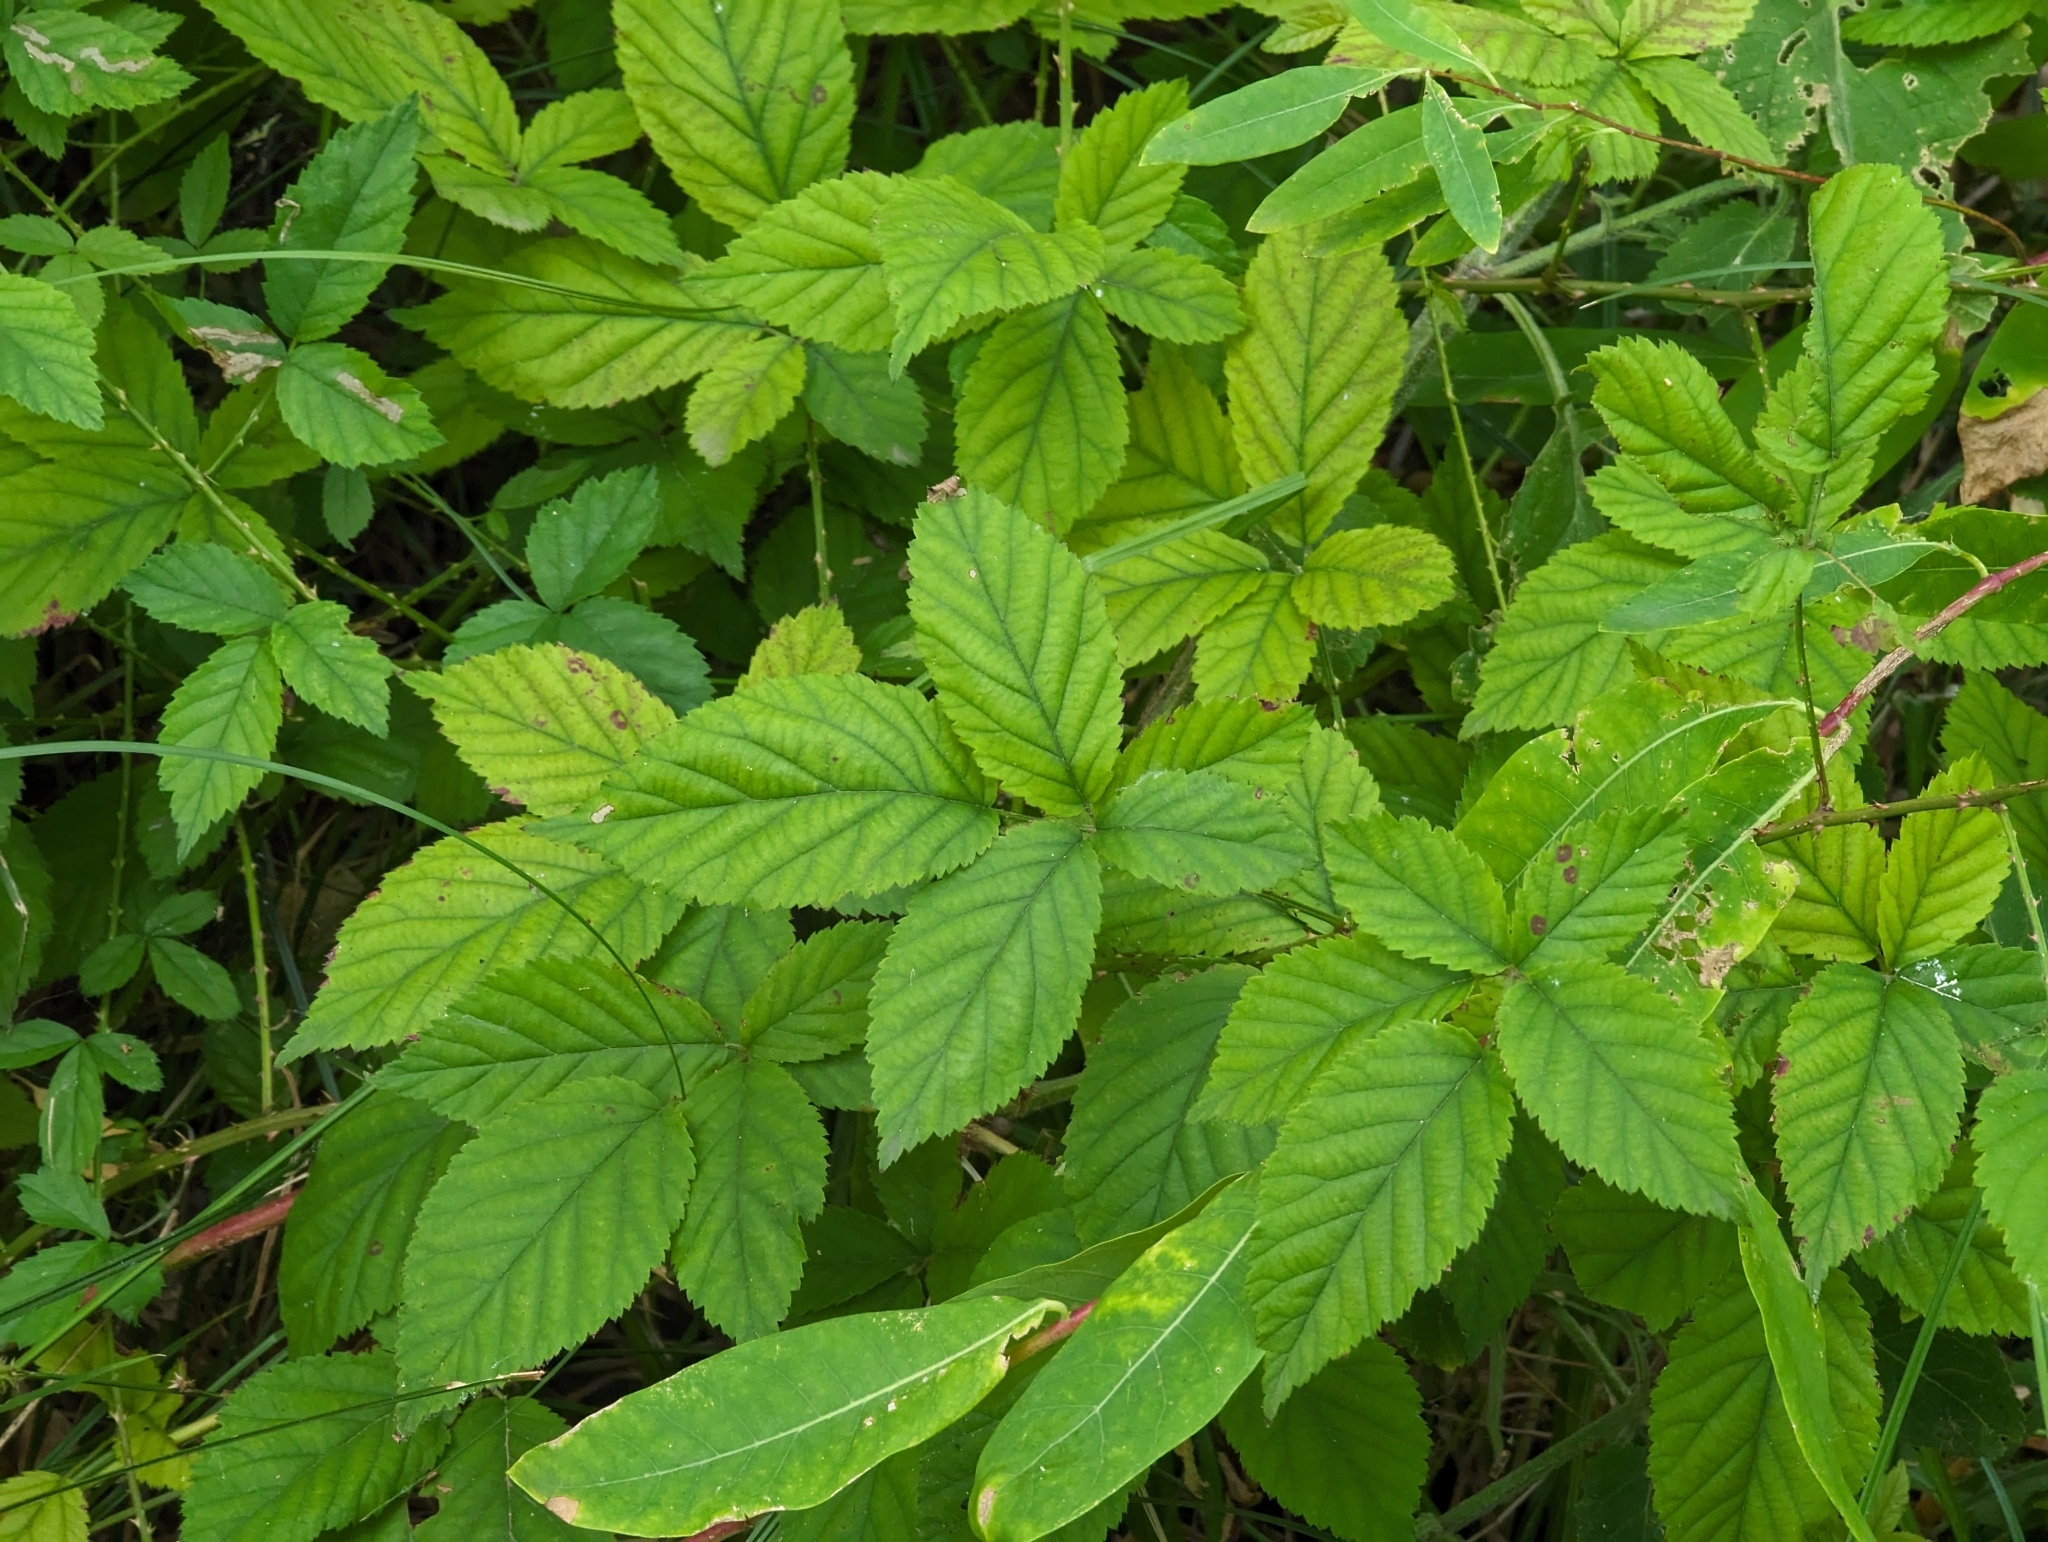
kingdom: Plantae
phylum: Tracheophyta
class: Magnoliopsida
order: Rosales
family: Rosaceae
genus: Rubus
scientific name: Rubus arizonensis
